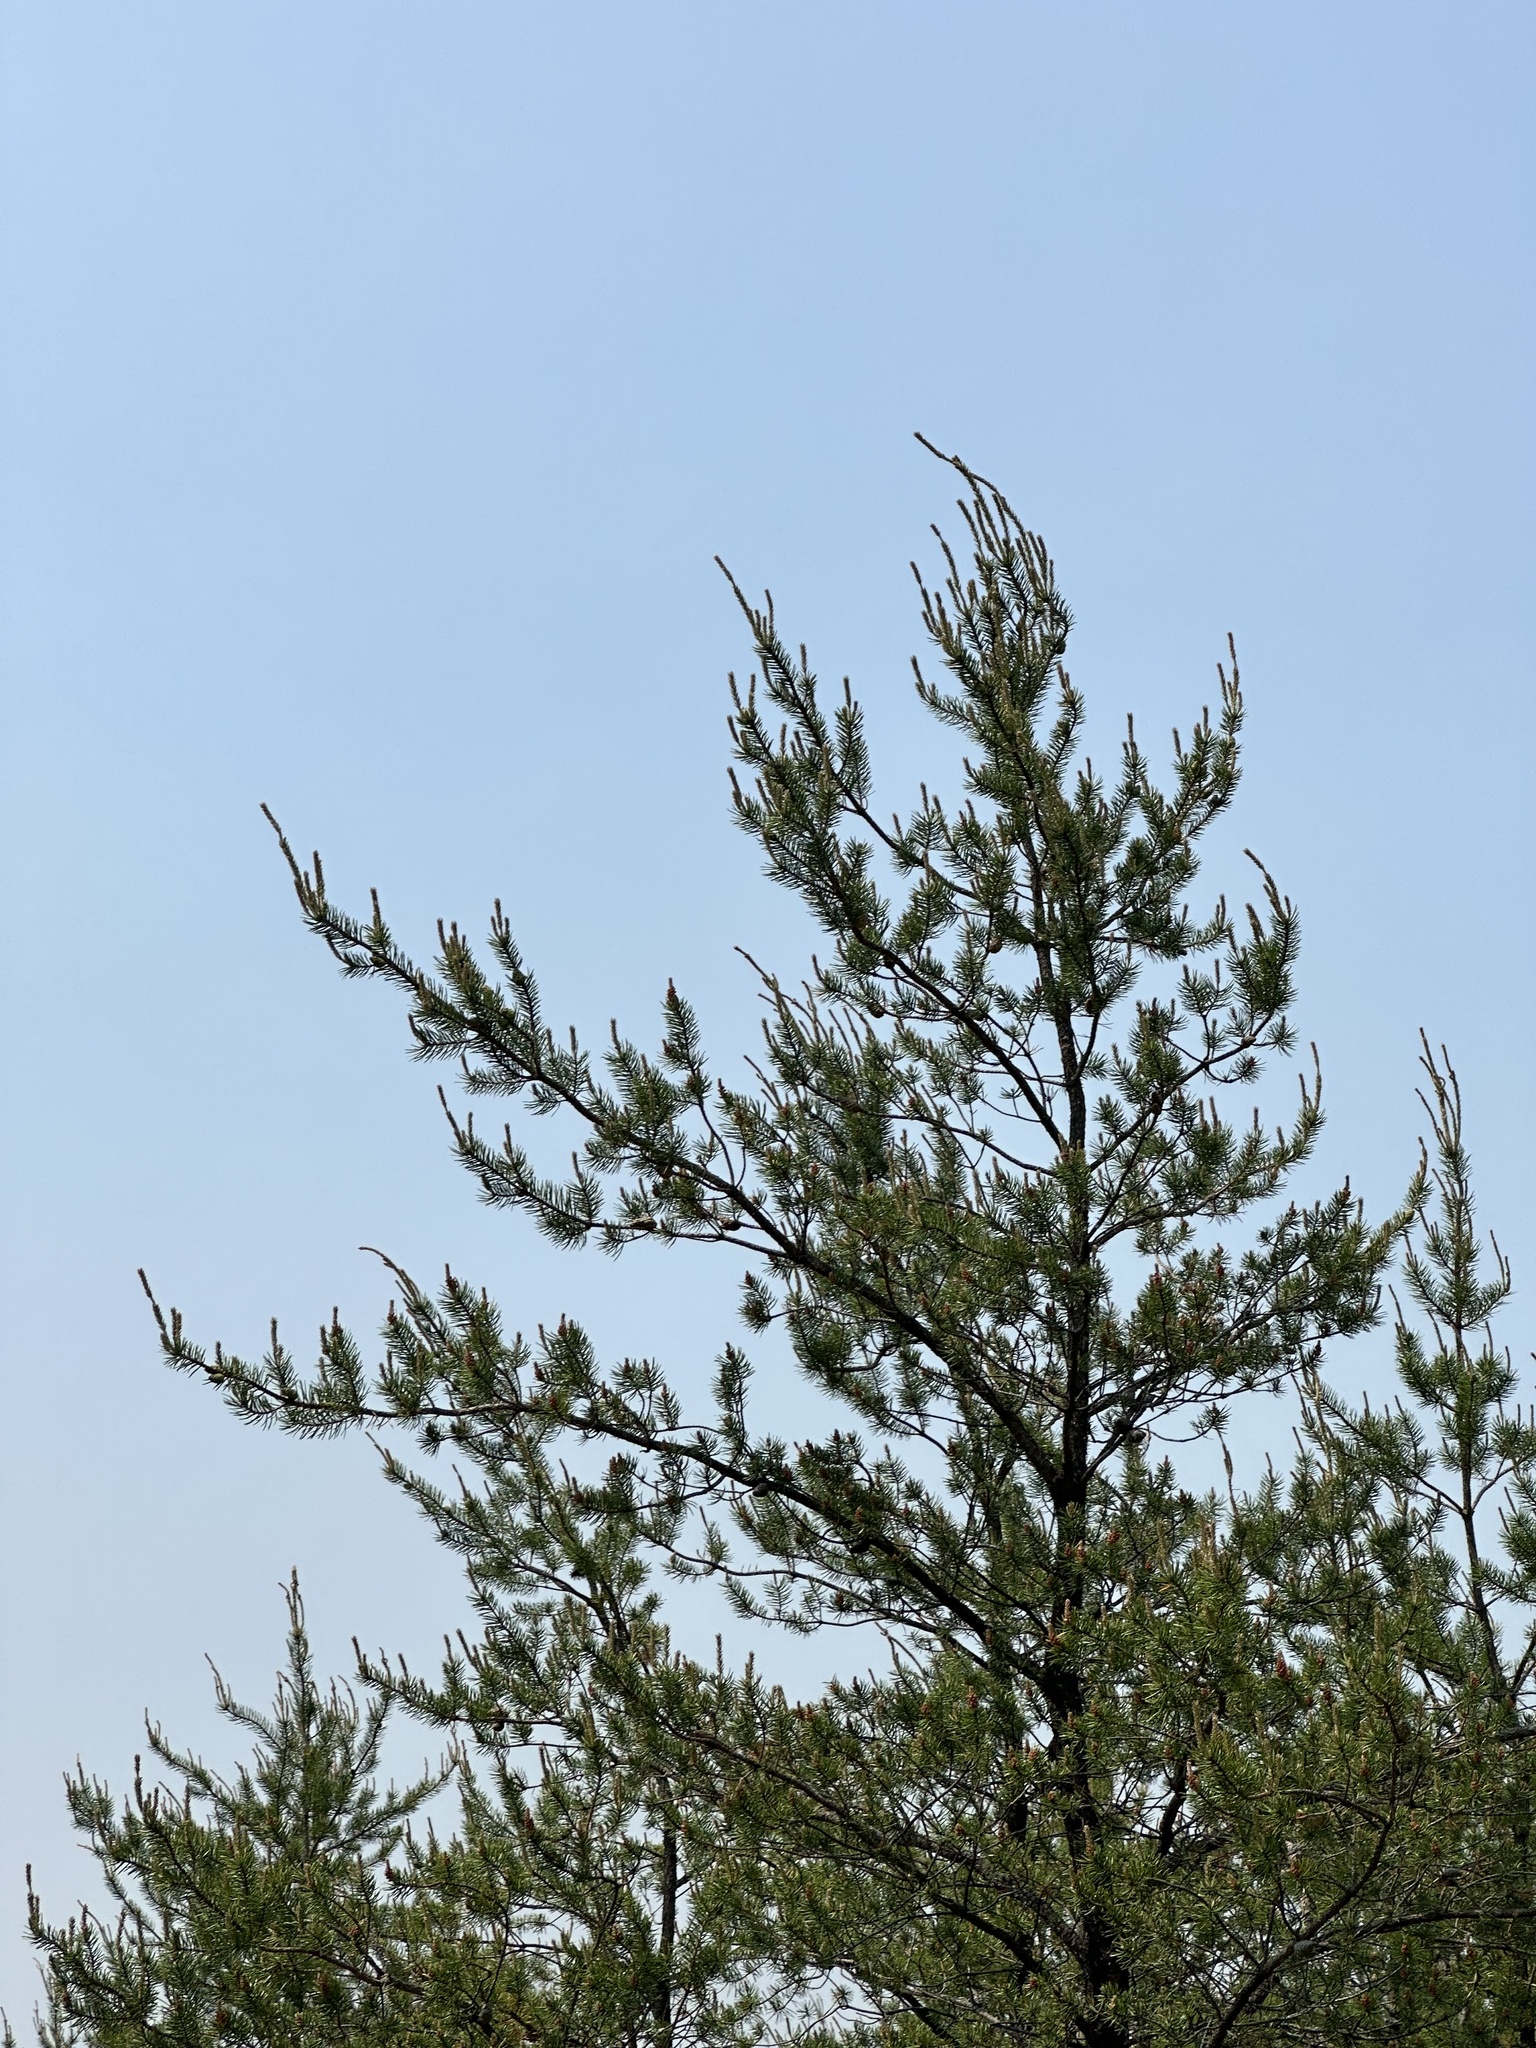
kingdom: Plantae
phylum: Tracheophyta
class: Pinopsida
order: Pinales
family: Pinaceae
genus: Pinus
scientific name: Pinus banksiana
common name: Jack pine
